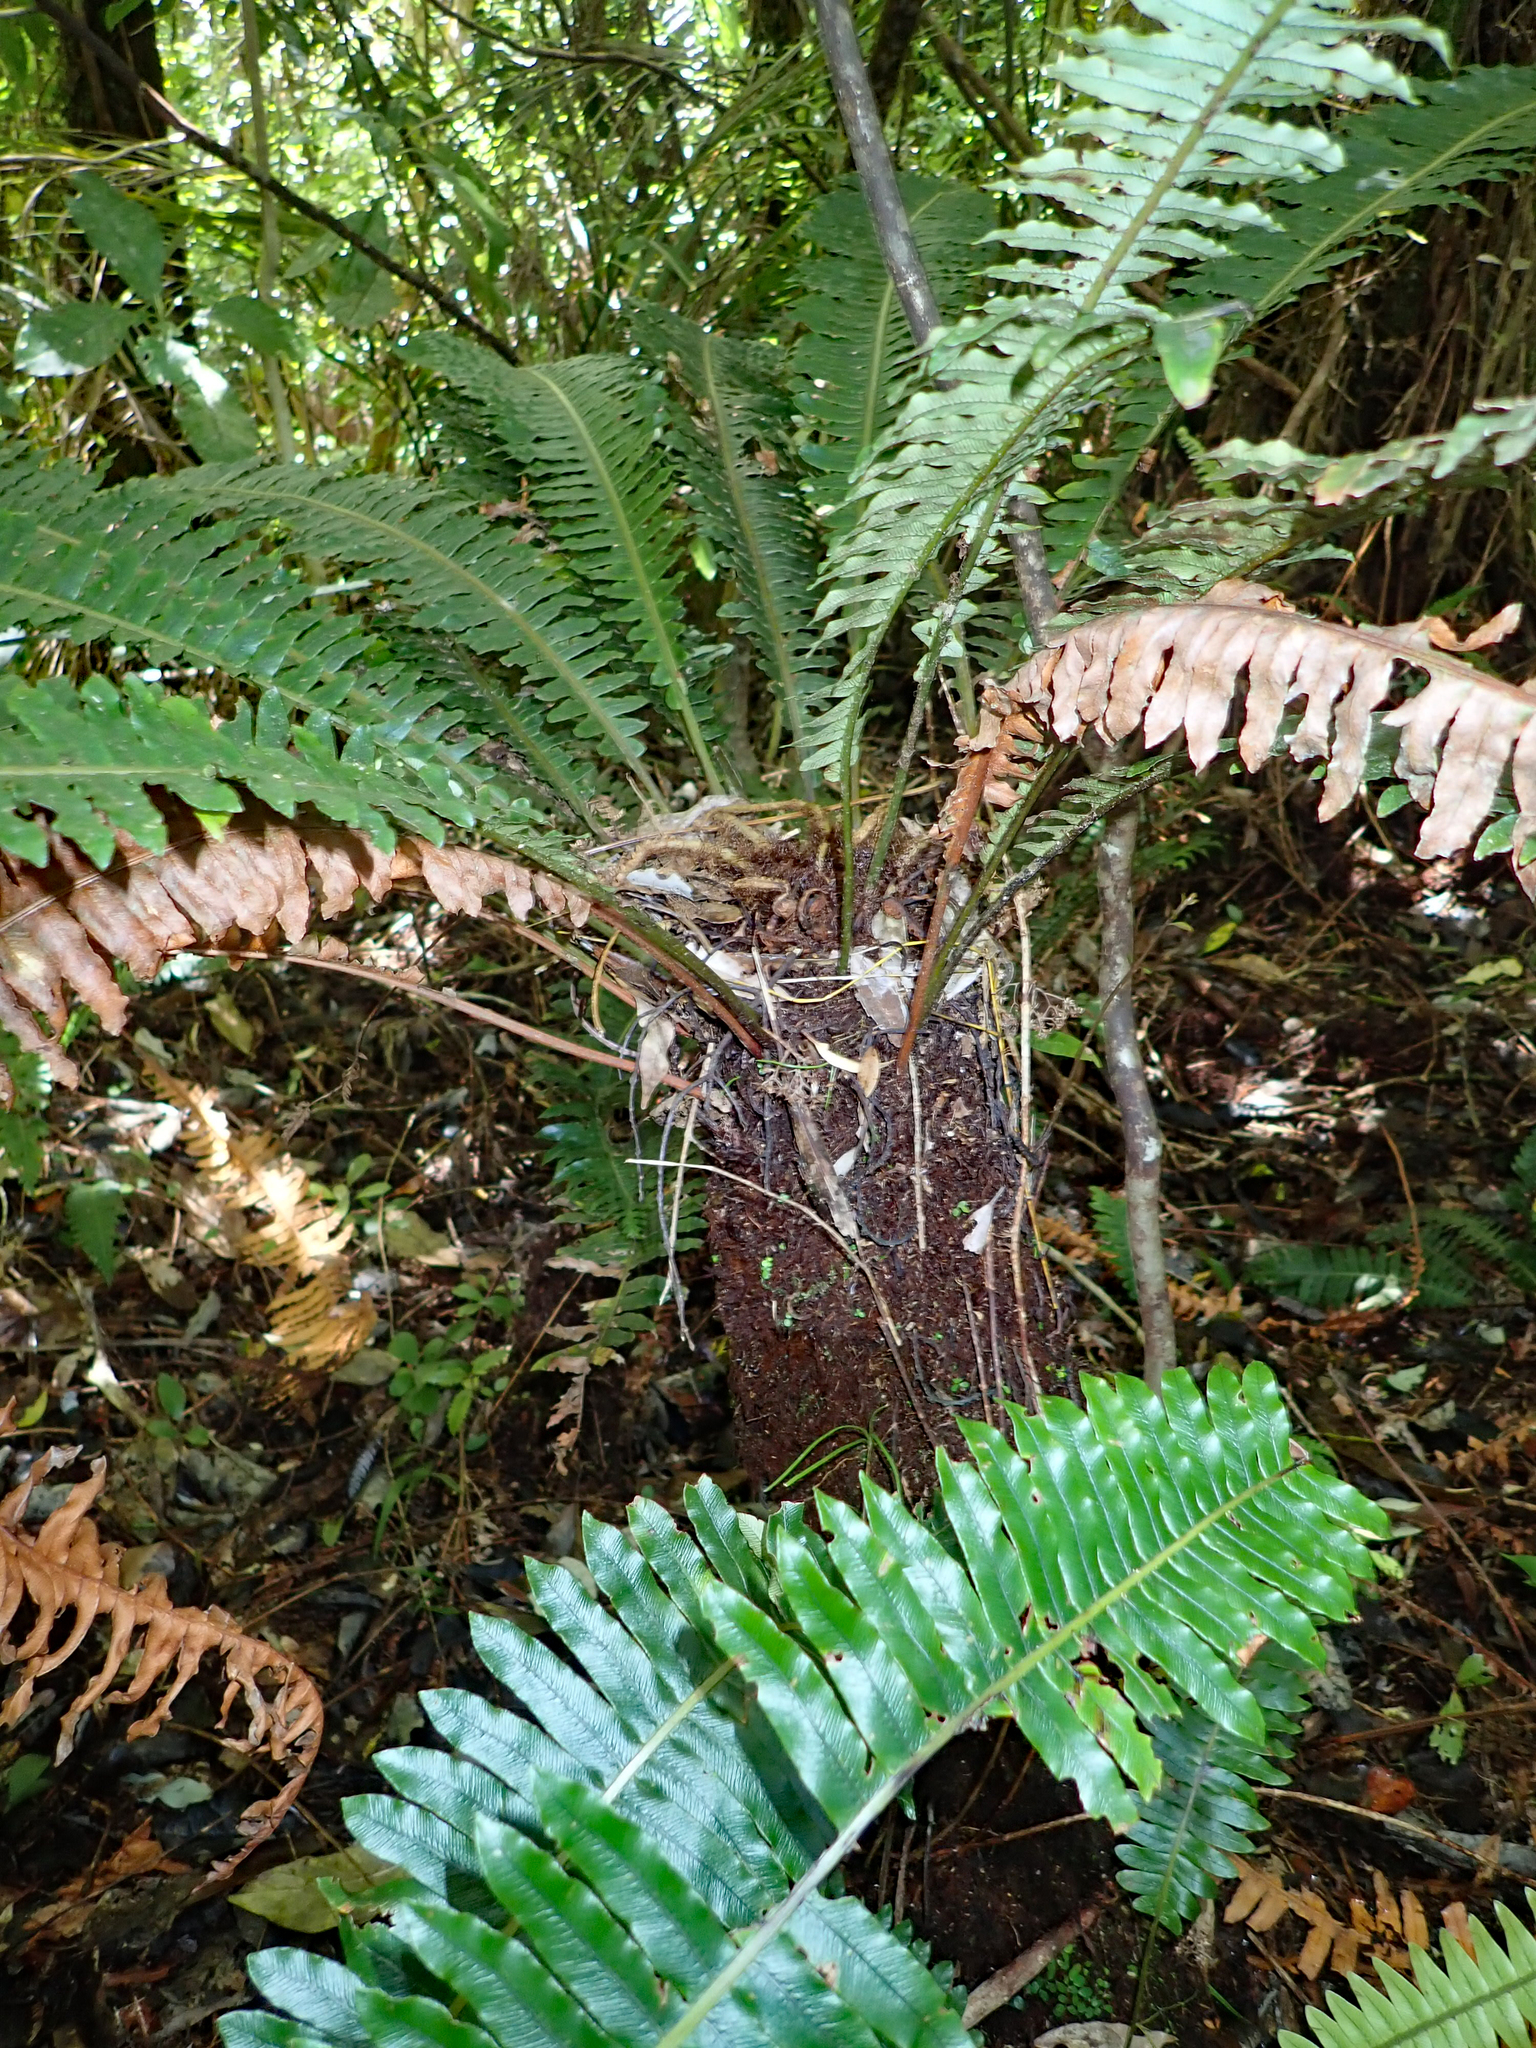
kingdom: Plantae
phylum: Tracheophyta
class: Polypodiopsida
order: Polypodiales
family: Blechnaceae
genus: Lomaria
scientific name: Lomaria discolor
